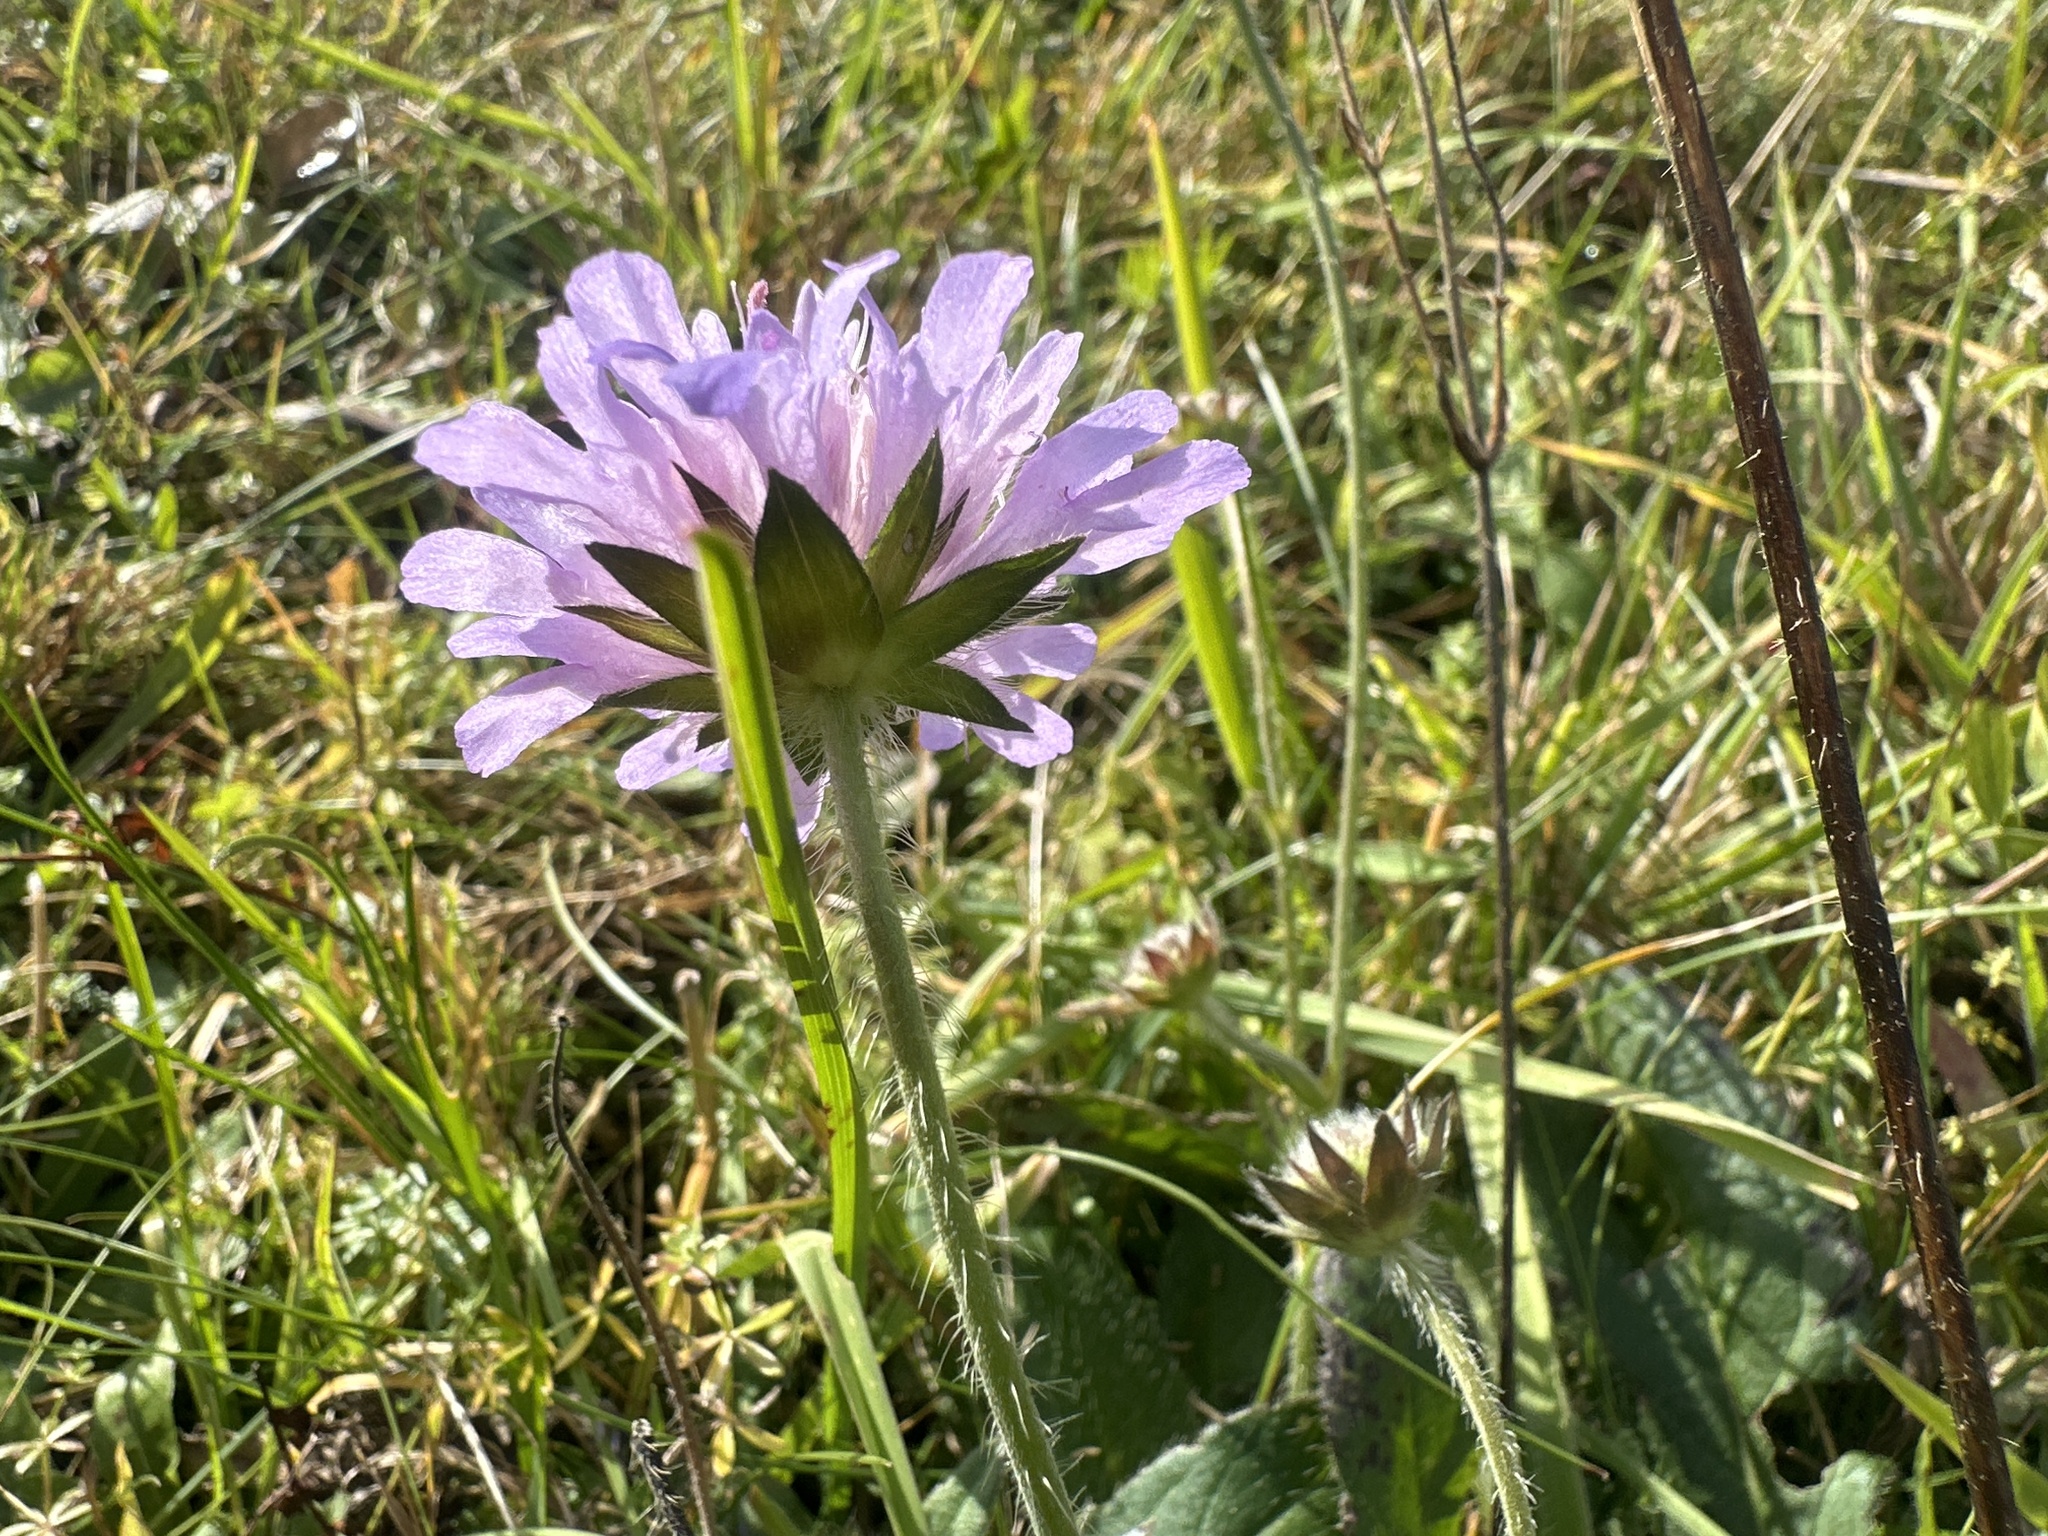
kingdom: Plantae
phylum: Tracheophyta
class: Magnoliopsida
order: Dipsacales
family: Caprifoliaceae
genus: Knautia
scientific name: Knautia arvensis
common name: Field scabiosa
